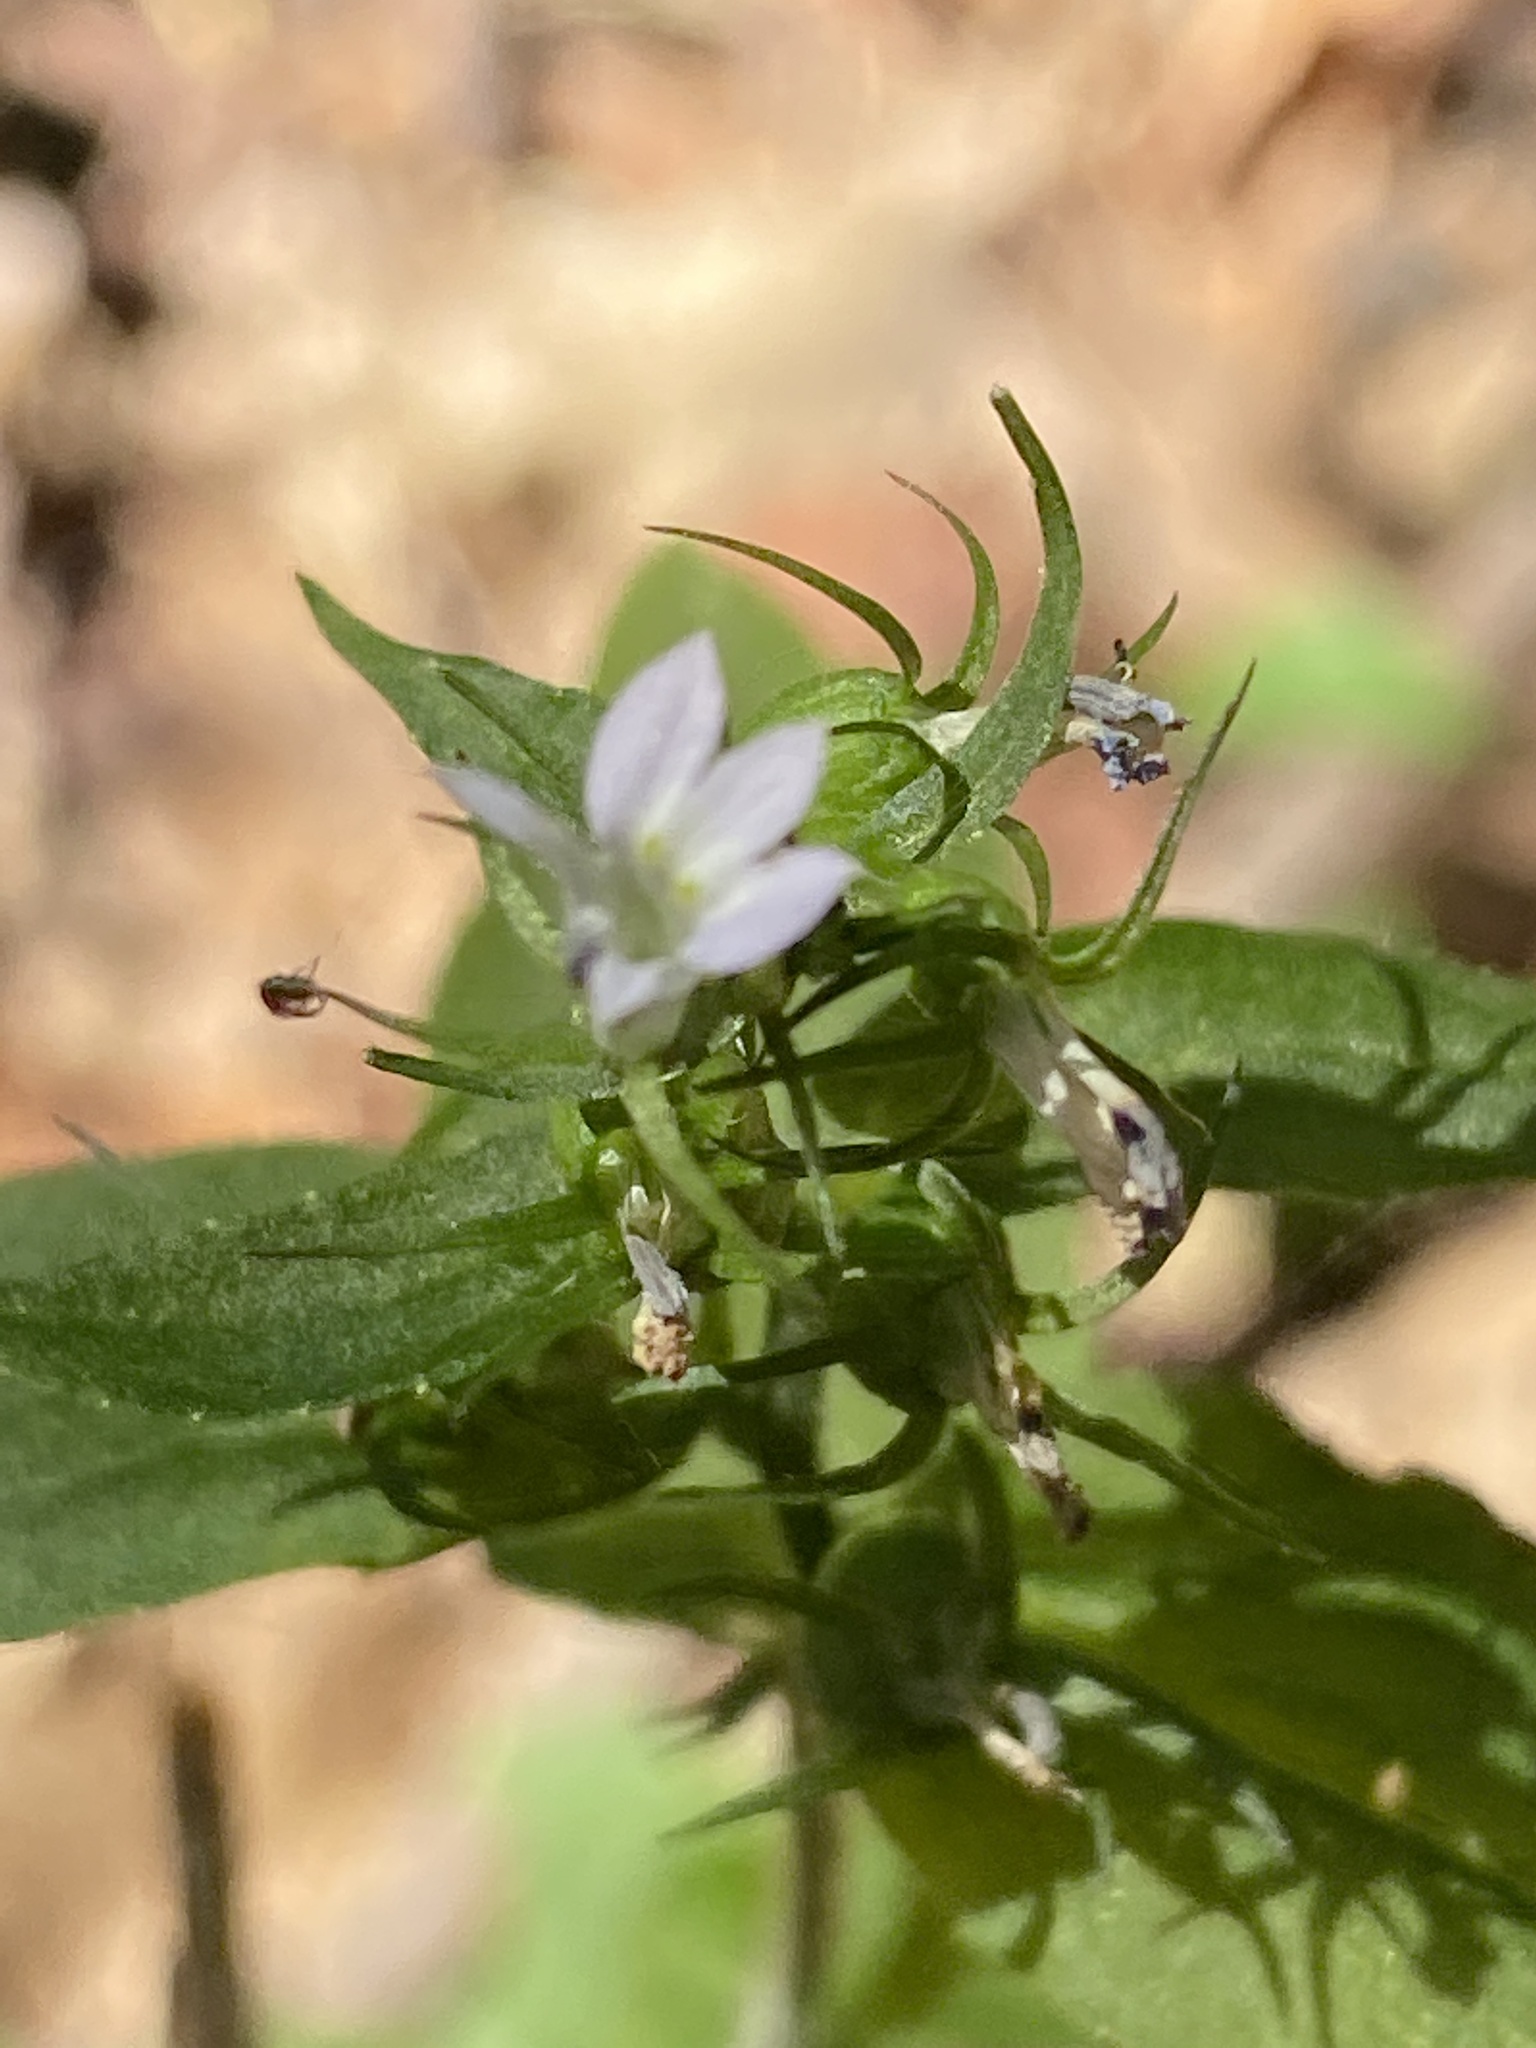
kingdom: Plantae
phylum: Tracheophyta
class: Magnoliopsida
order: Asterales
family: Campanulaceae
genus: Lobelia
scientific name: Lobelia inflata
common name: Indian tobacco
